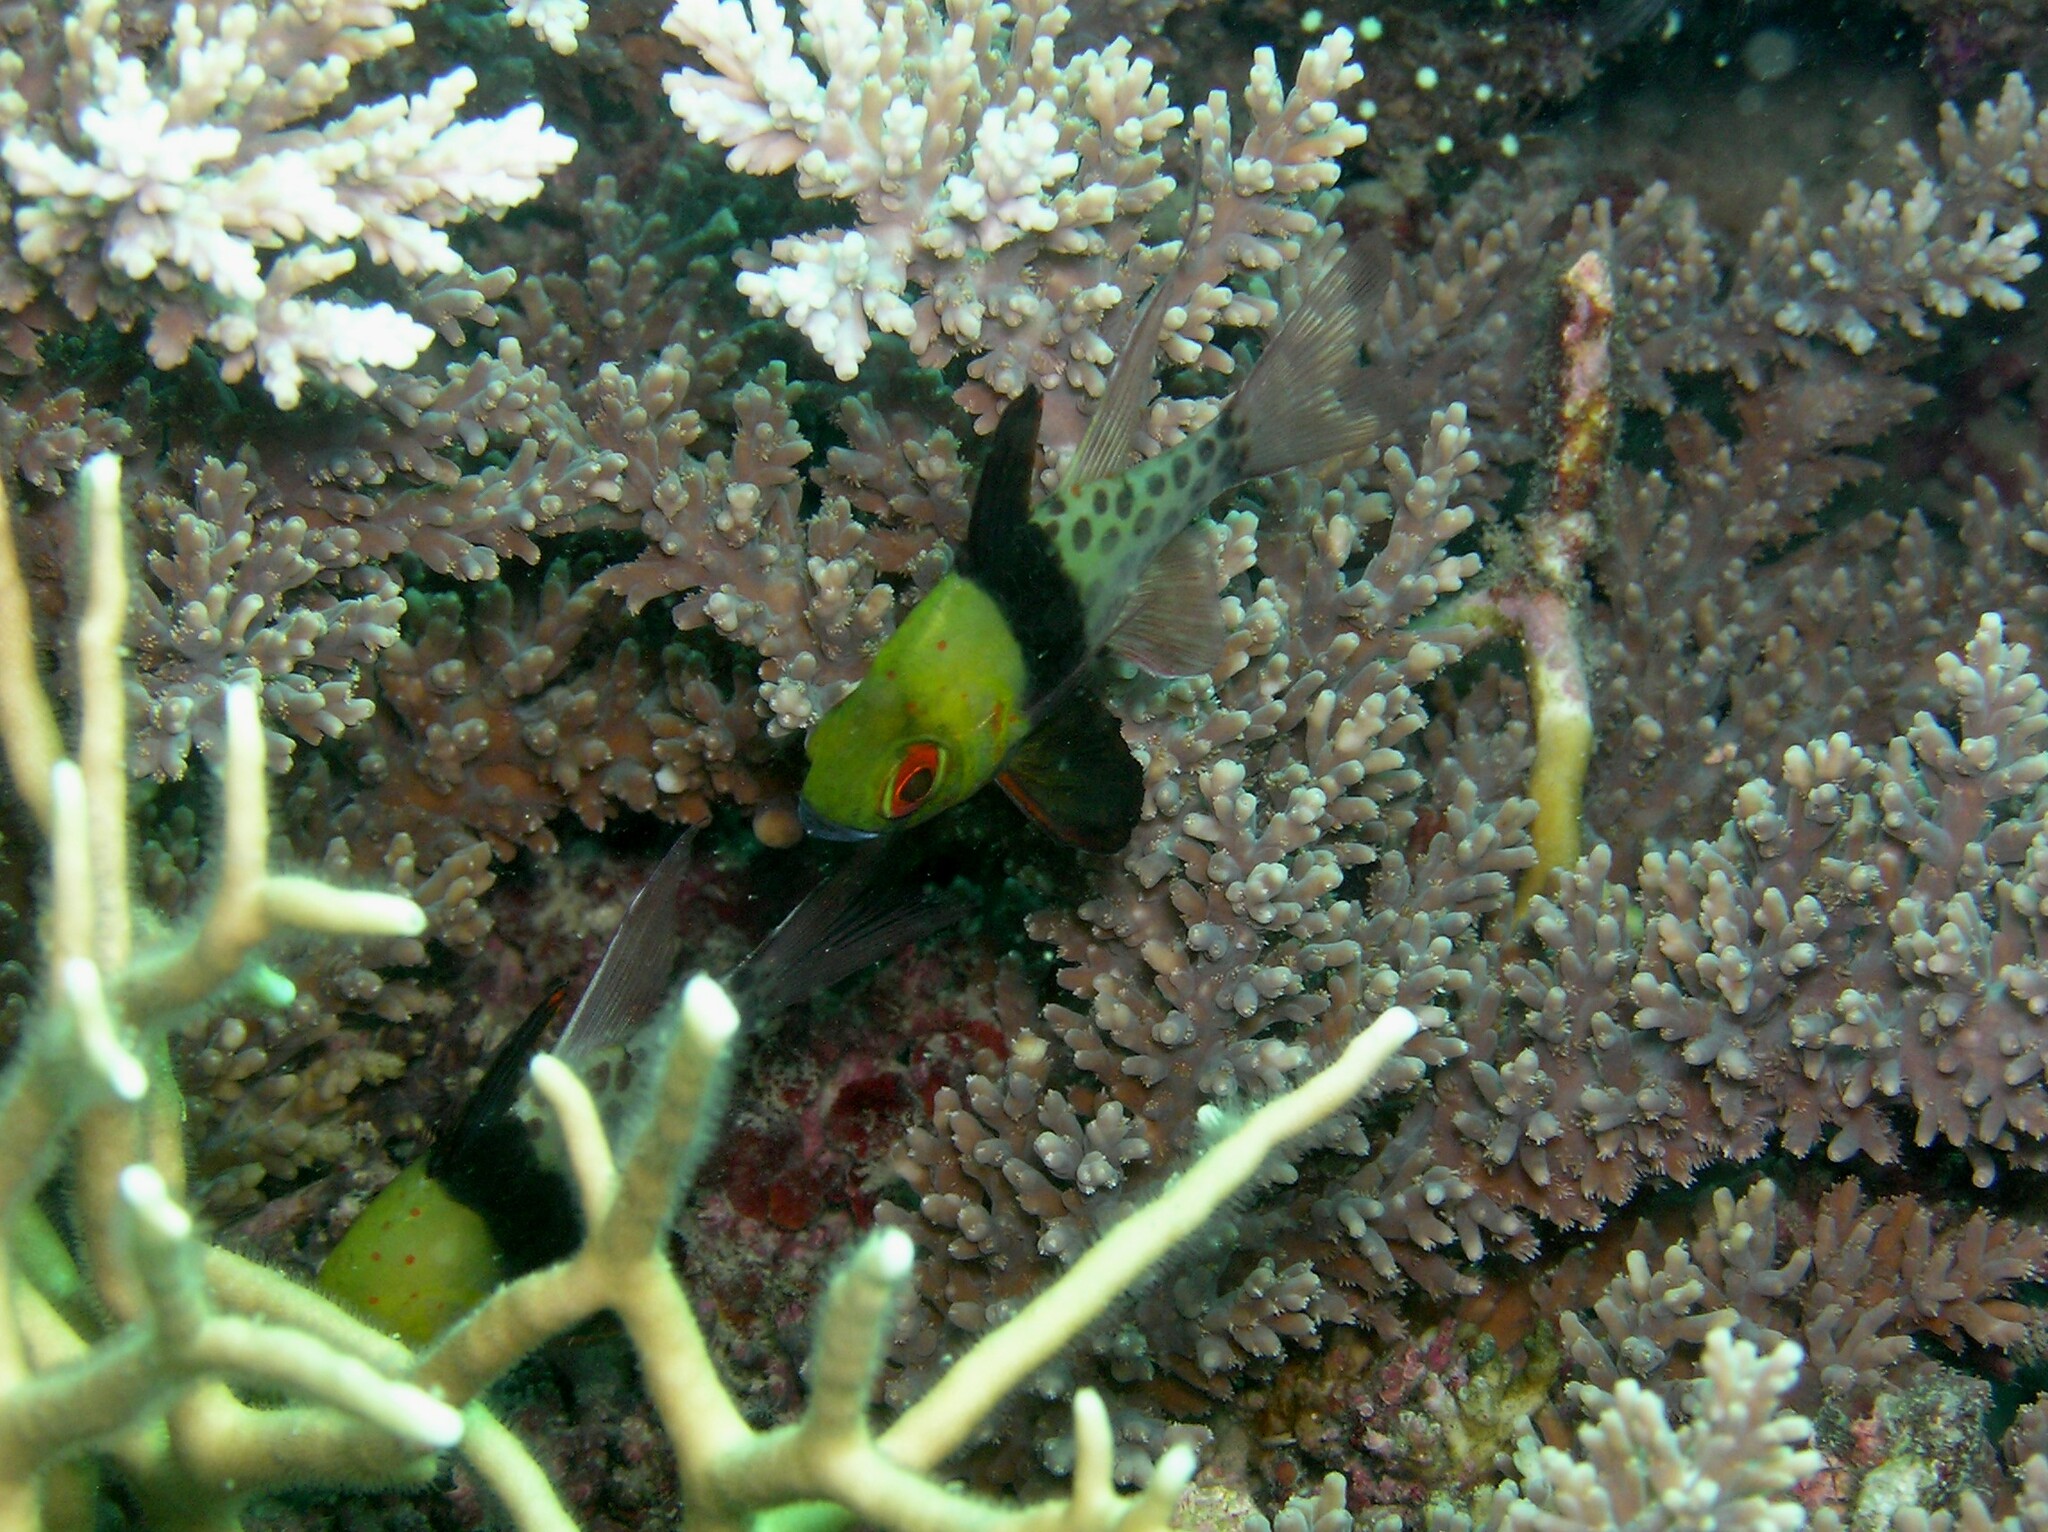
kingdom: Animalia
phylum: Chordata
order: Perciformes
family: Apogonidae
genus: Sphaeramia
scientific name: Sphaeramia nematoptera
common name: Pajama cardinalfish
